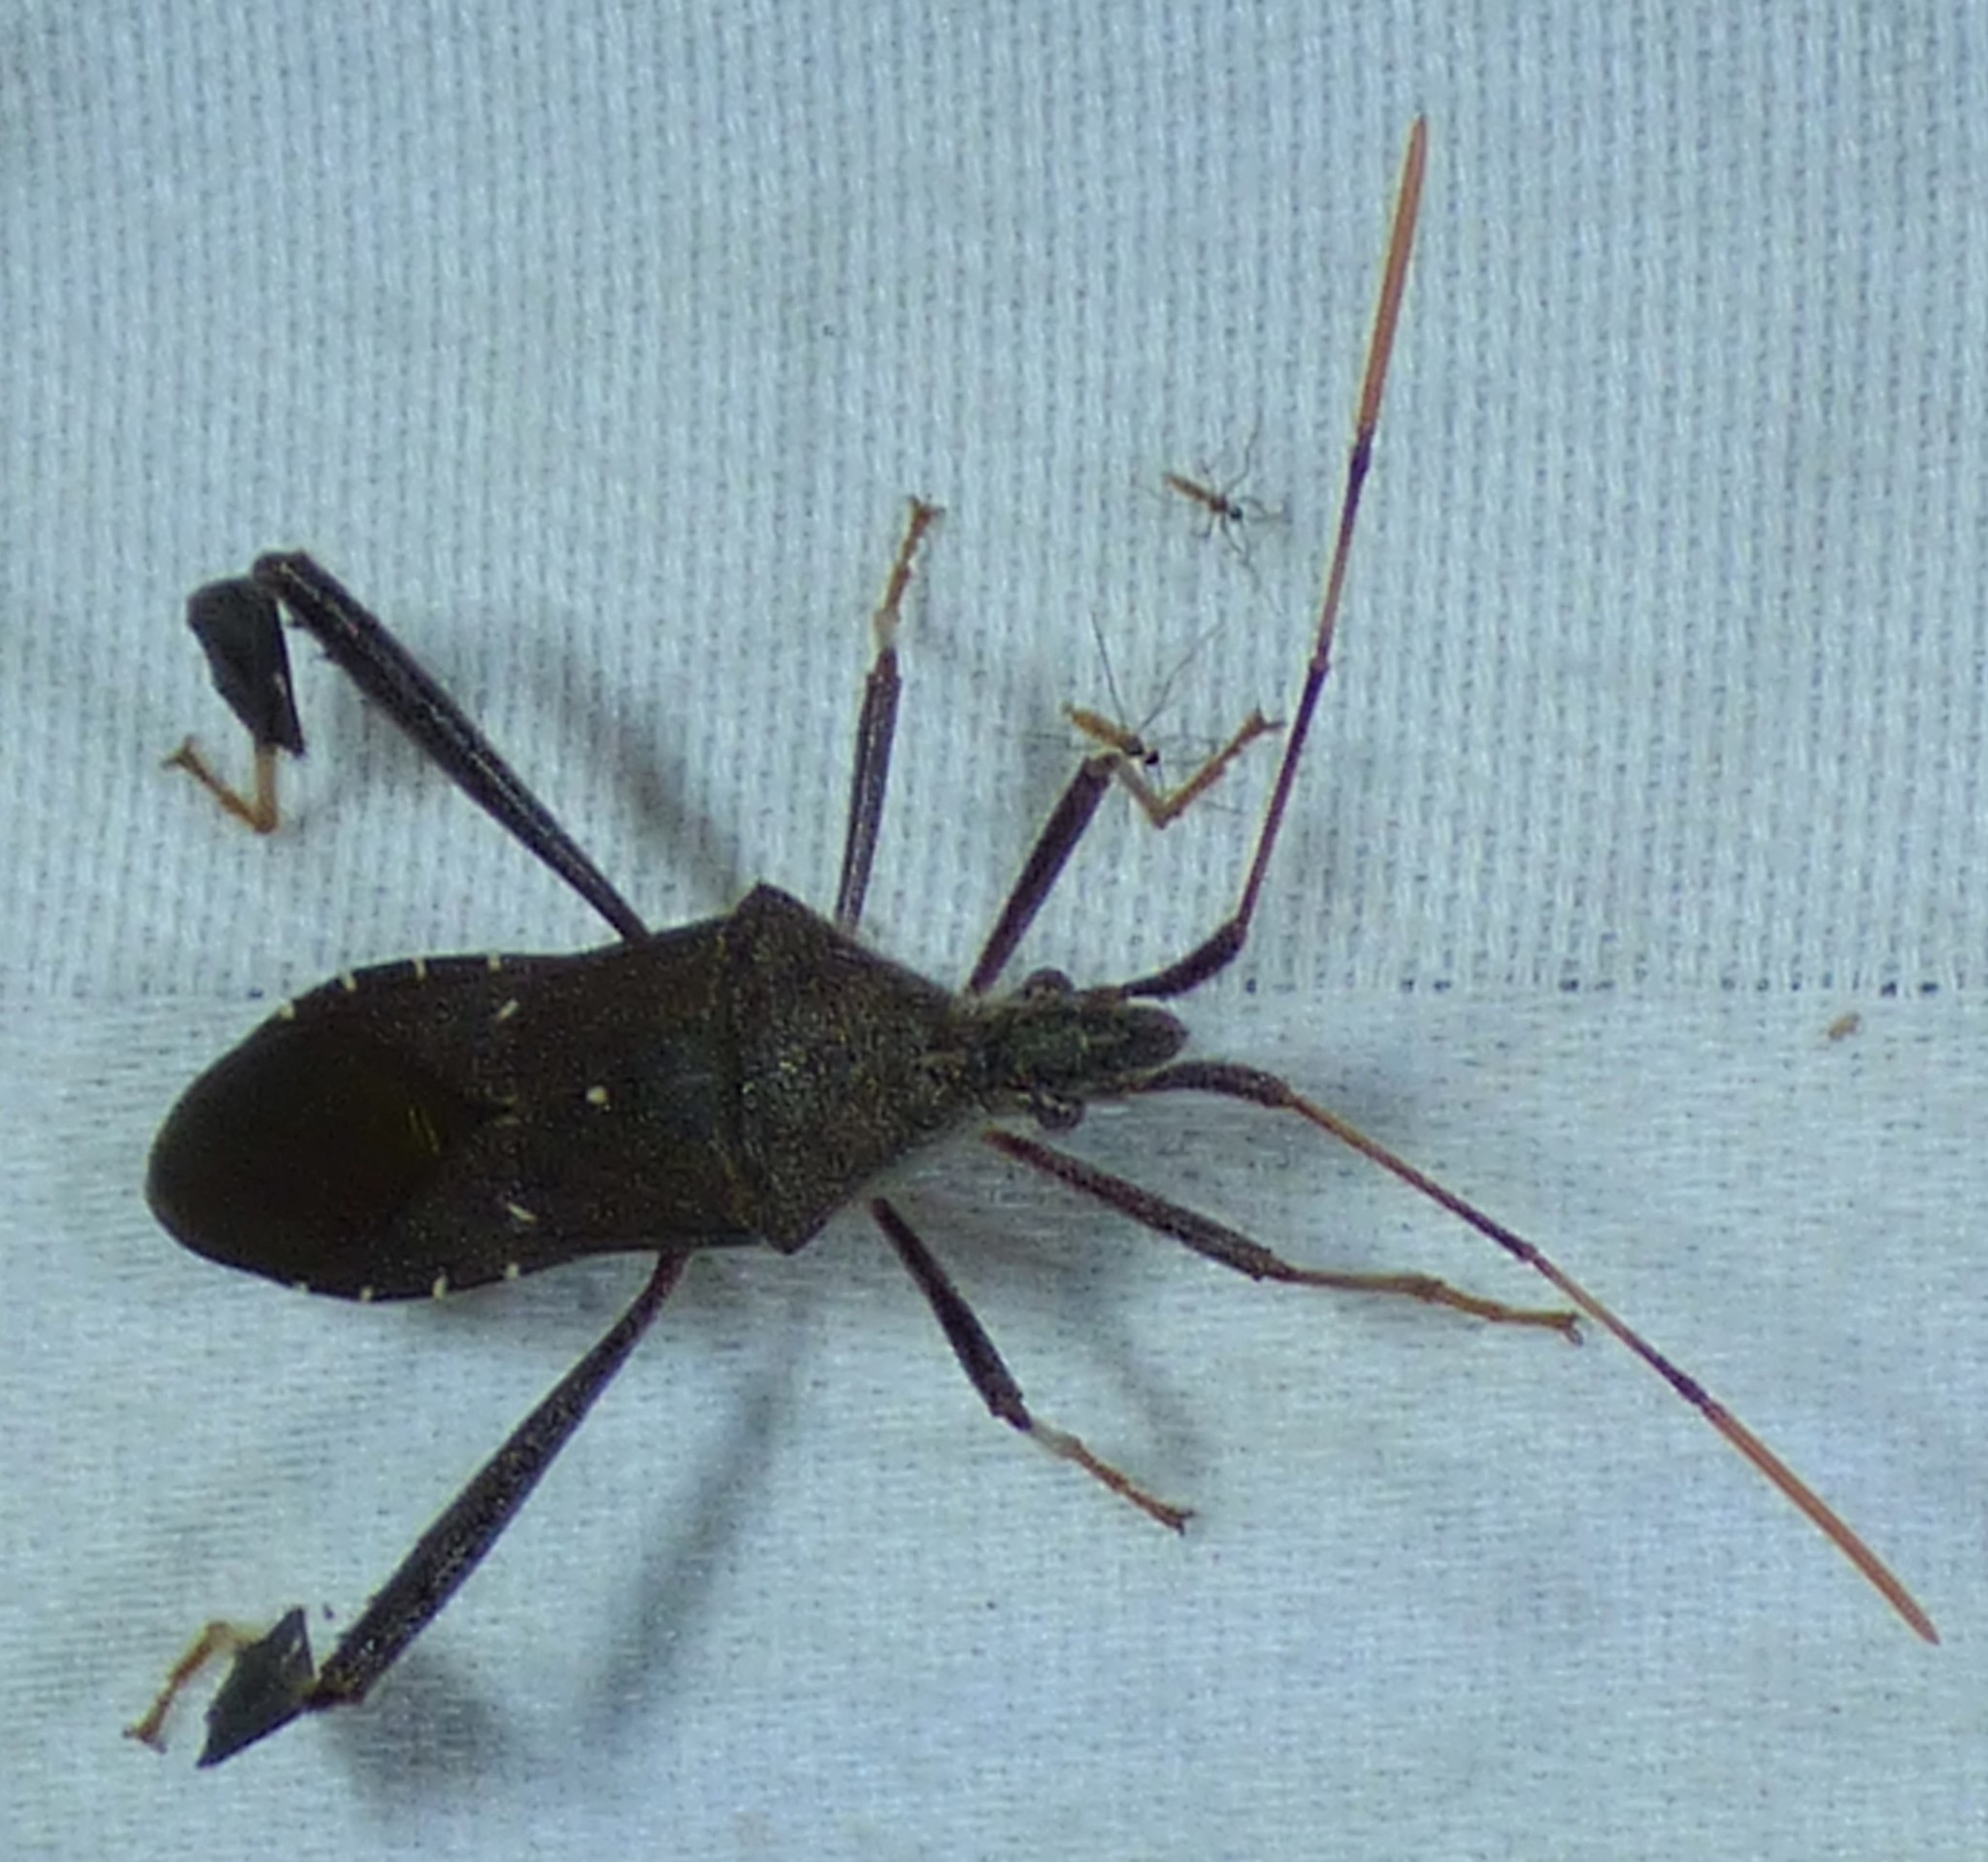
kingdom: Animalia
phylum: Arthropoda
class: Insecta
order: Hemiptera
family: Coreidae
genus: Leptoglossus
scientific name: Leptoglossus oppositus
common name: Northern leaf-footed bug
